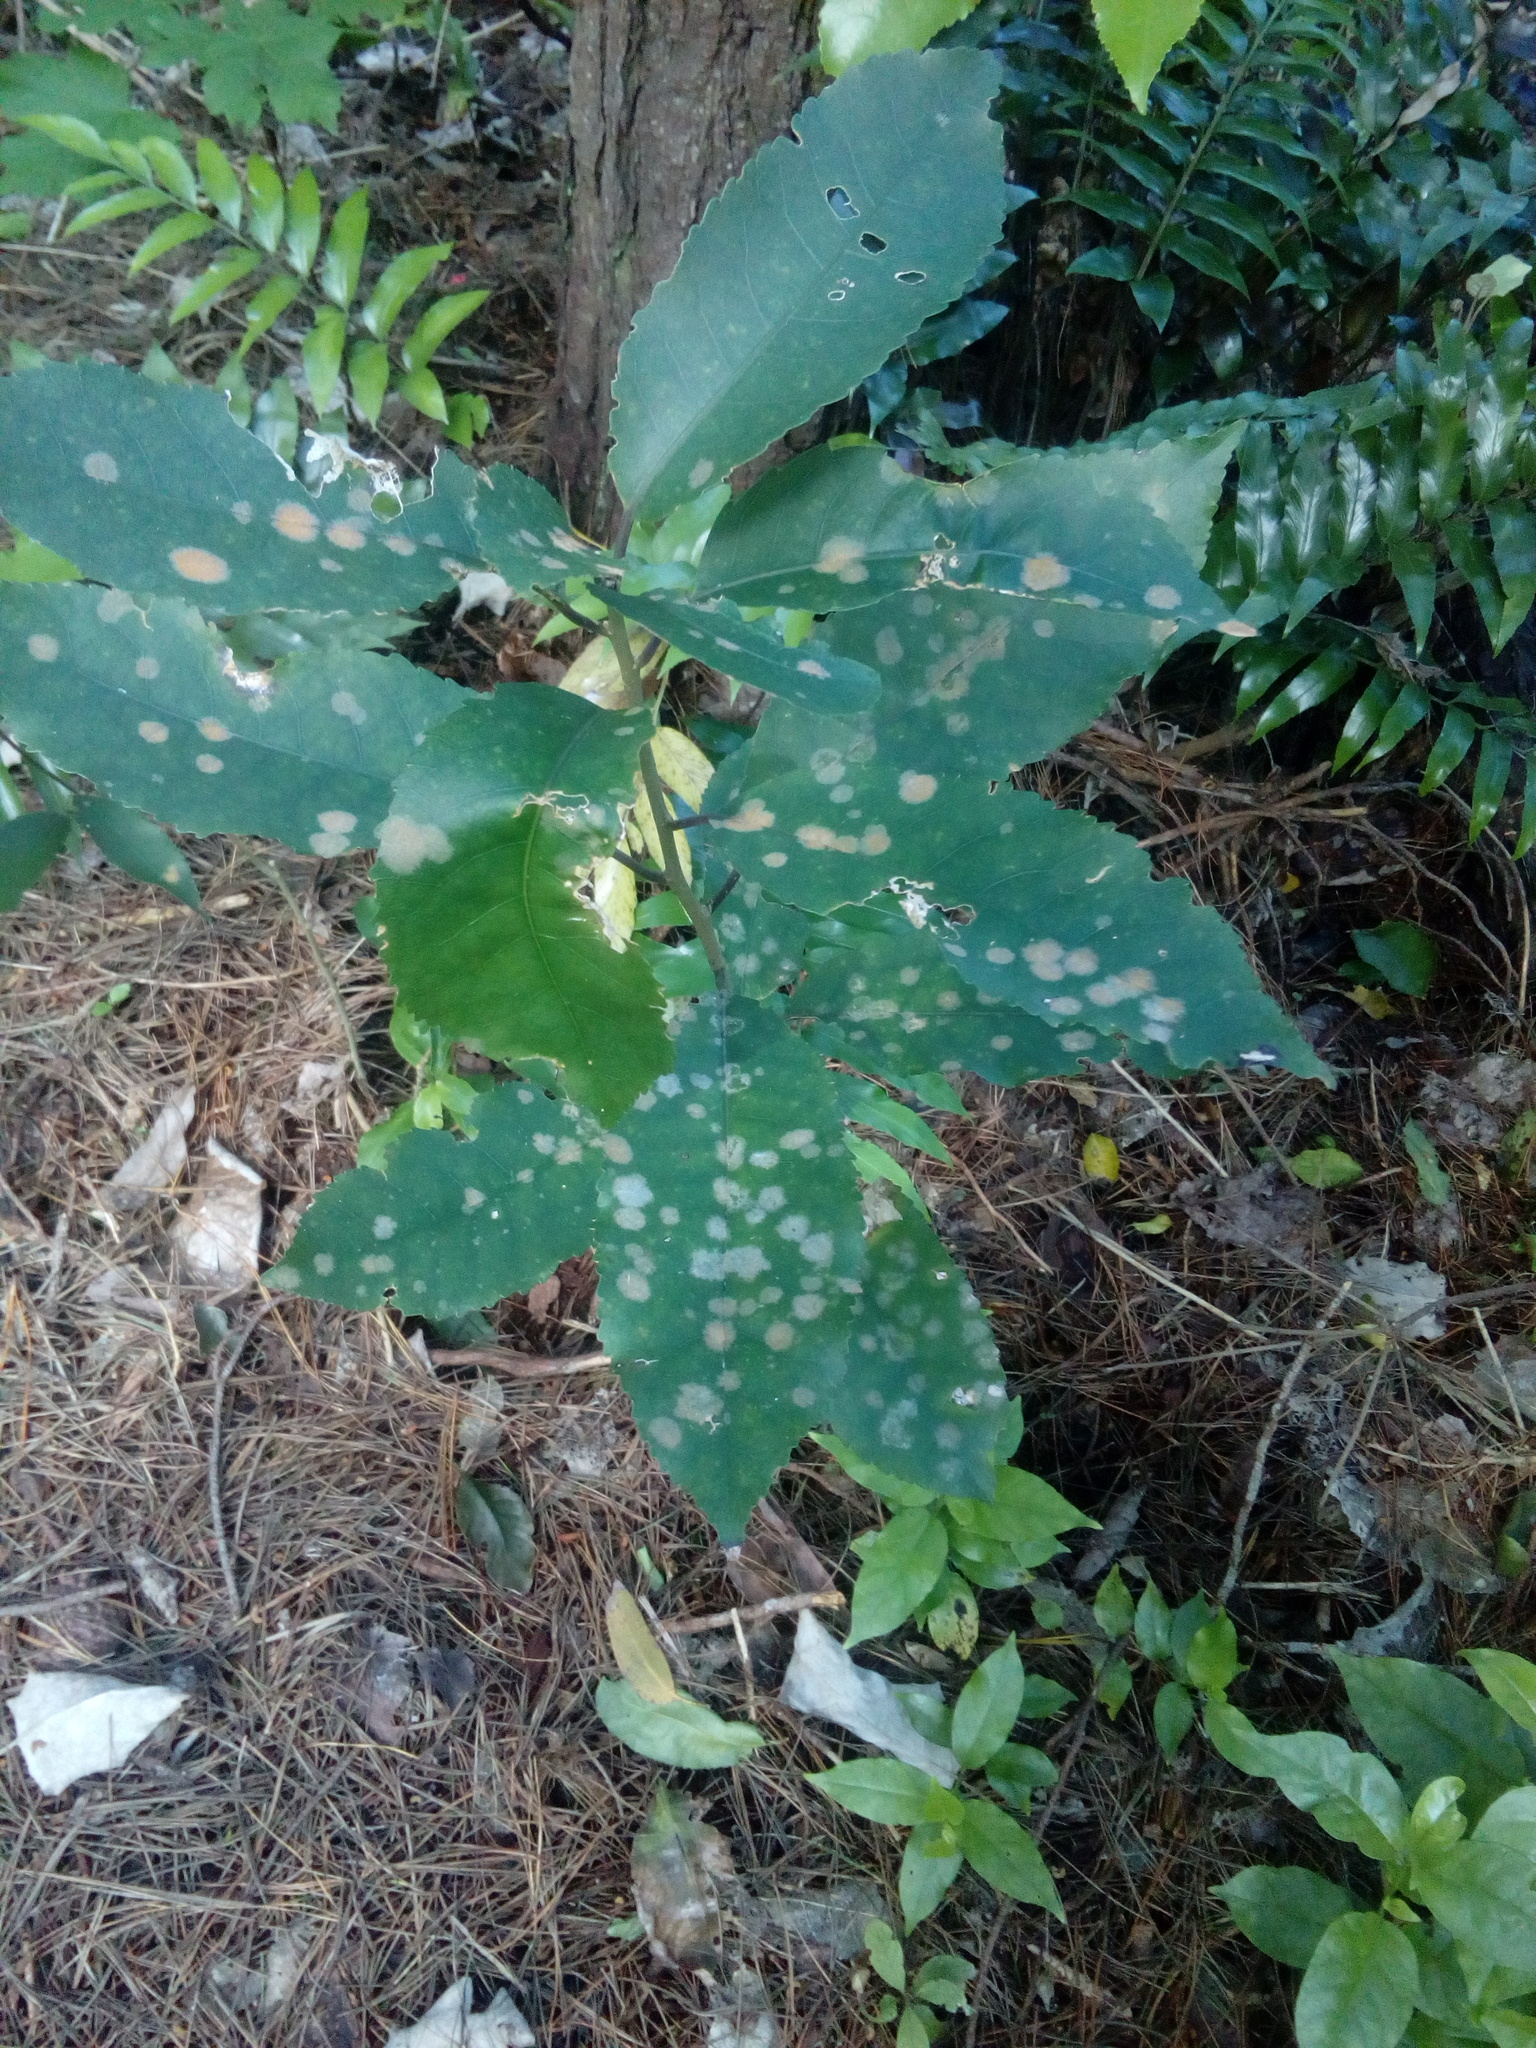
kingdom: Plantae
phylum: Tracheophyta
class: Magnoliopsida
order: Malpighiales
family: Violaceae
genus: Melicytus
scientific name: Melicytus ramiflorus
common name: Mahoe
